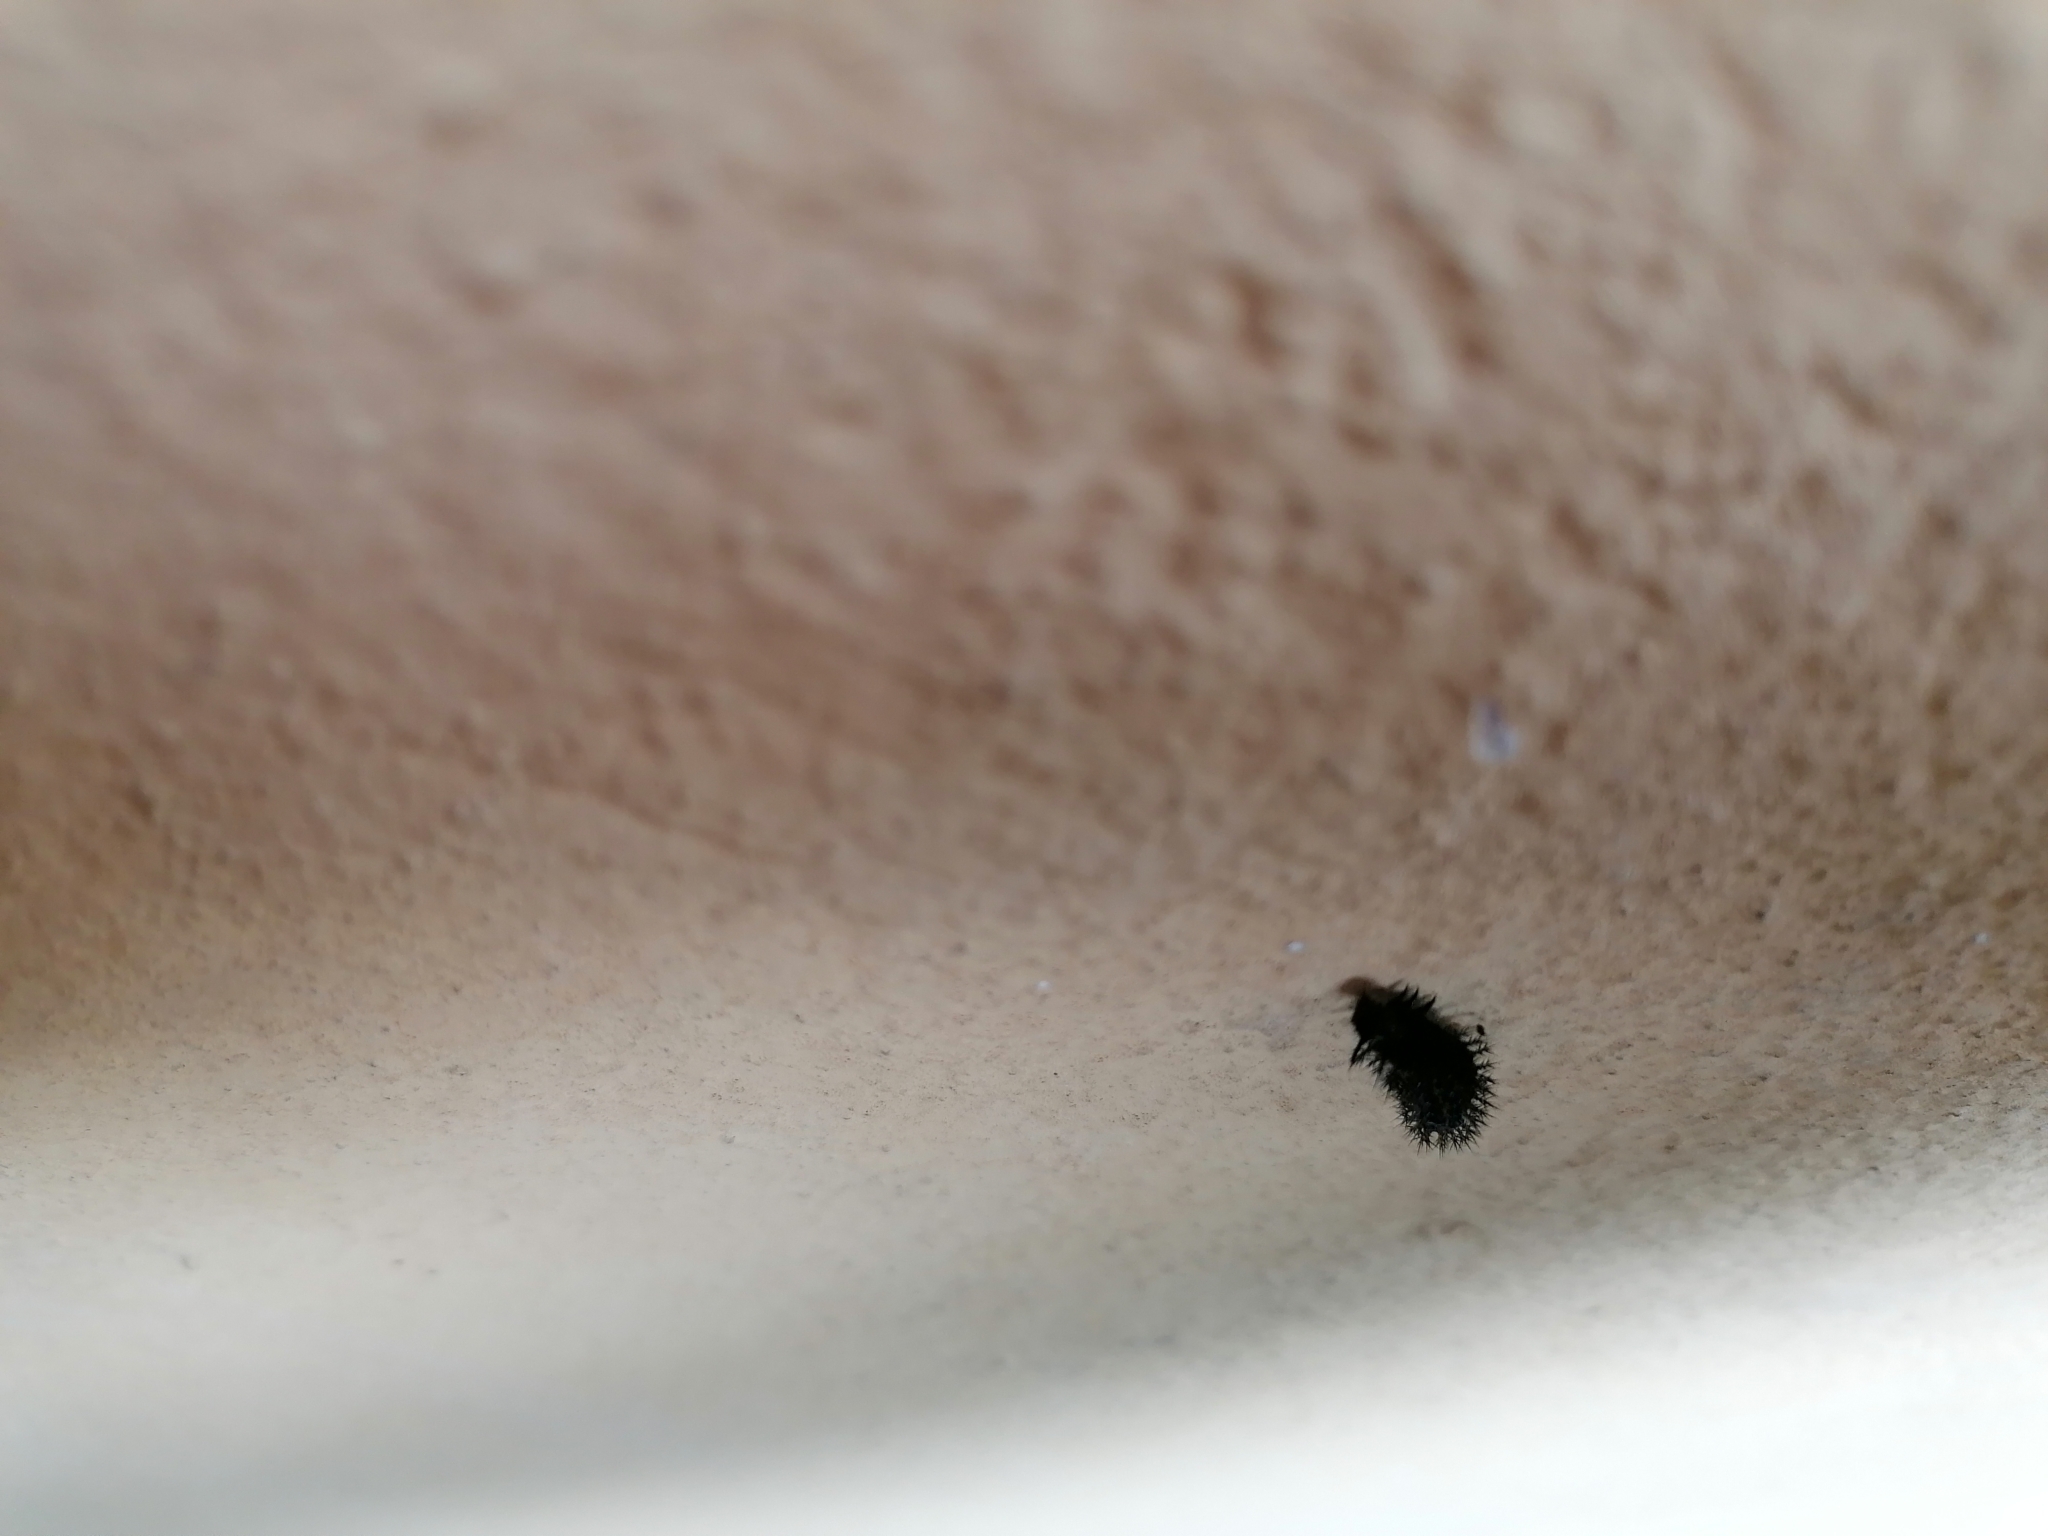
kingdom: Animalia
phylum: Arthropoda
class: Insecta
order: Lepidoptera
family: Nymphalidae
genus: Araschnia
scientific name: Araschnia levana
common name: Map butterfly
